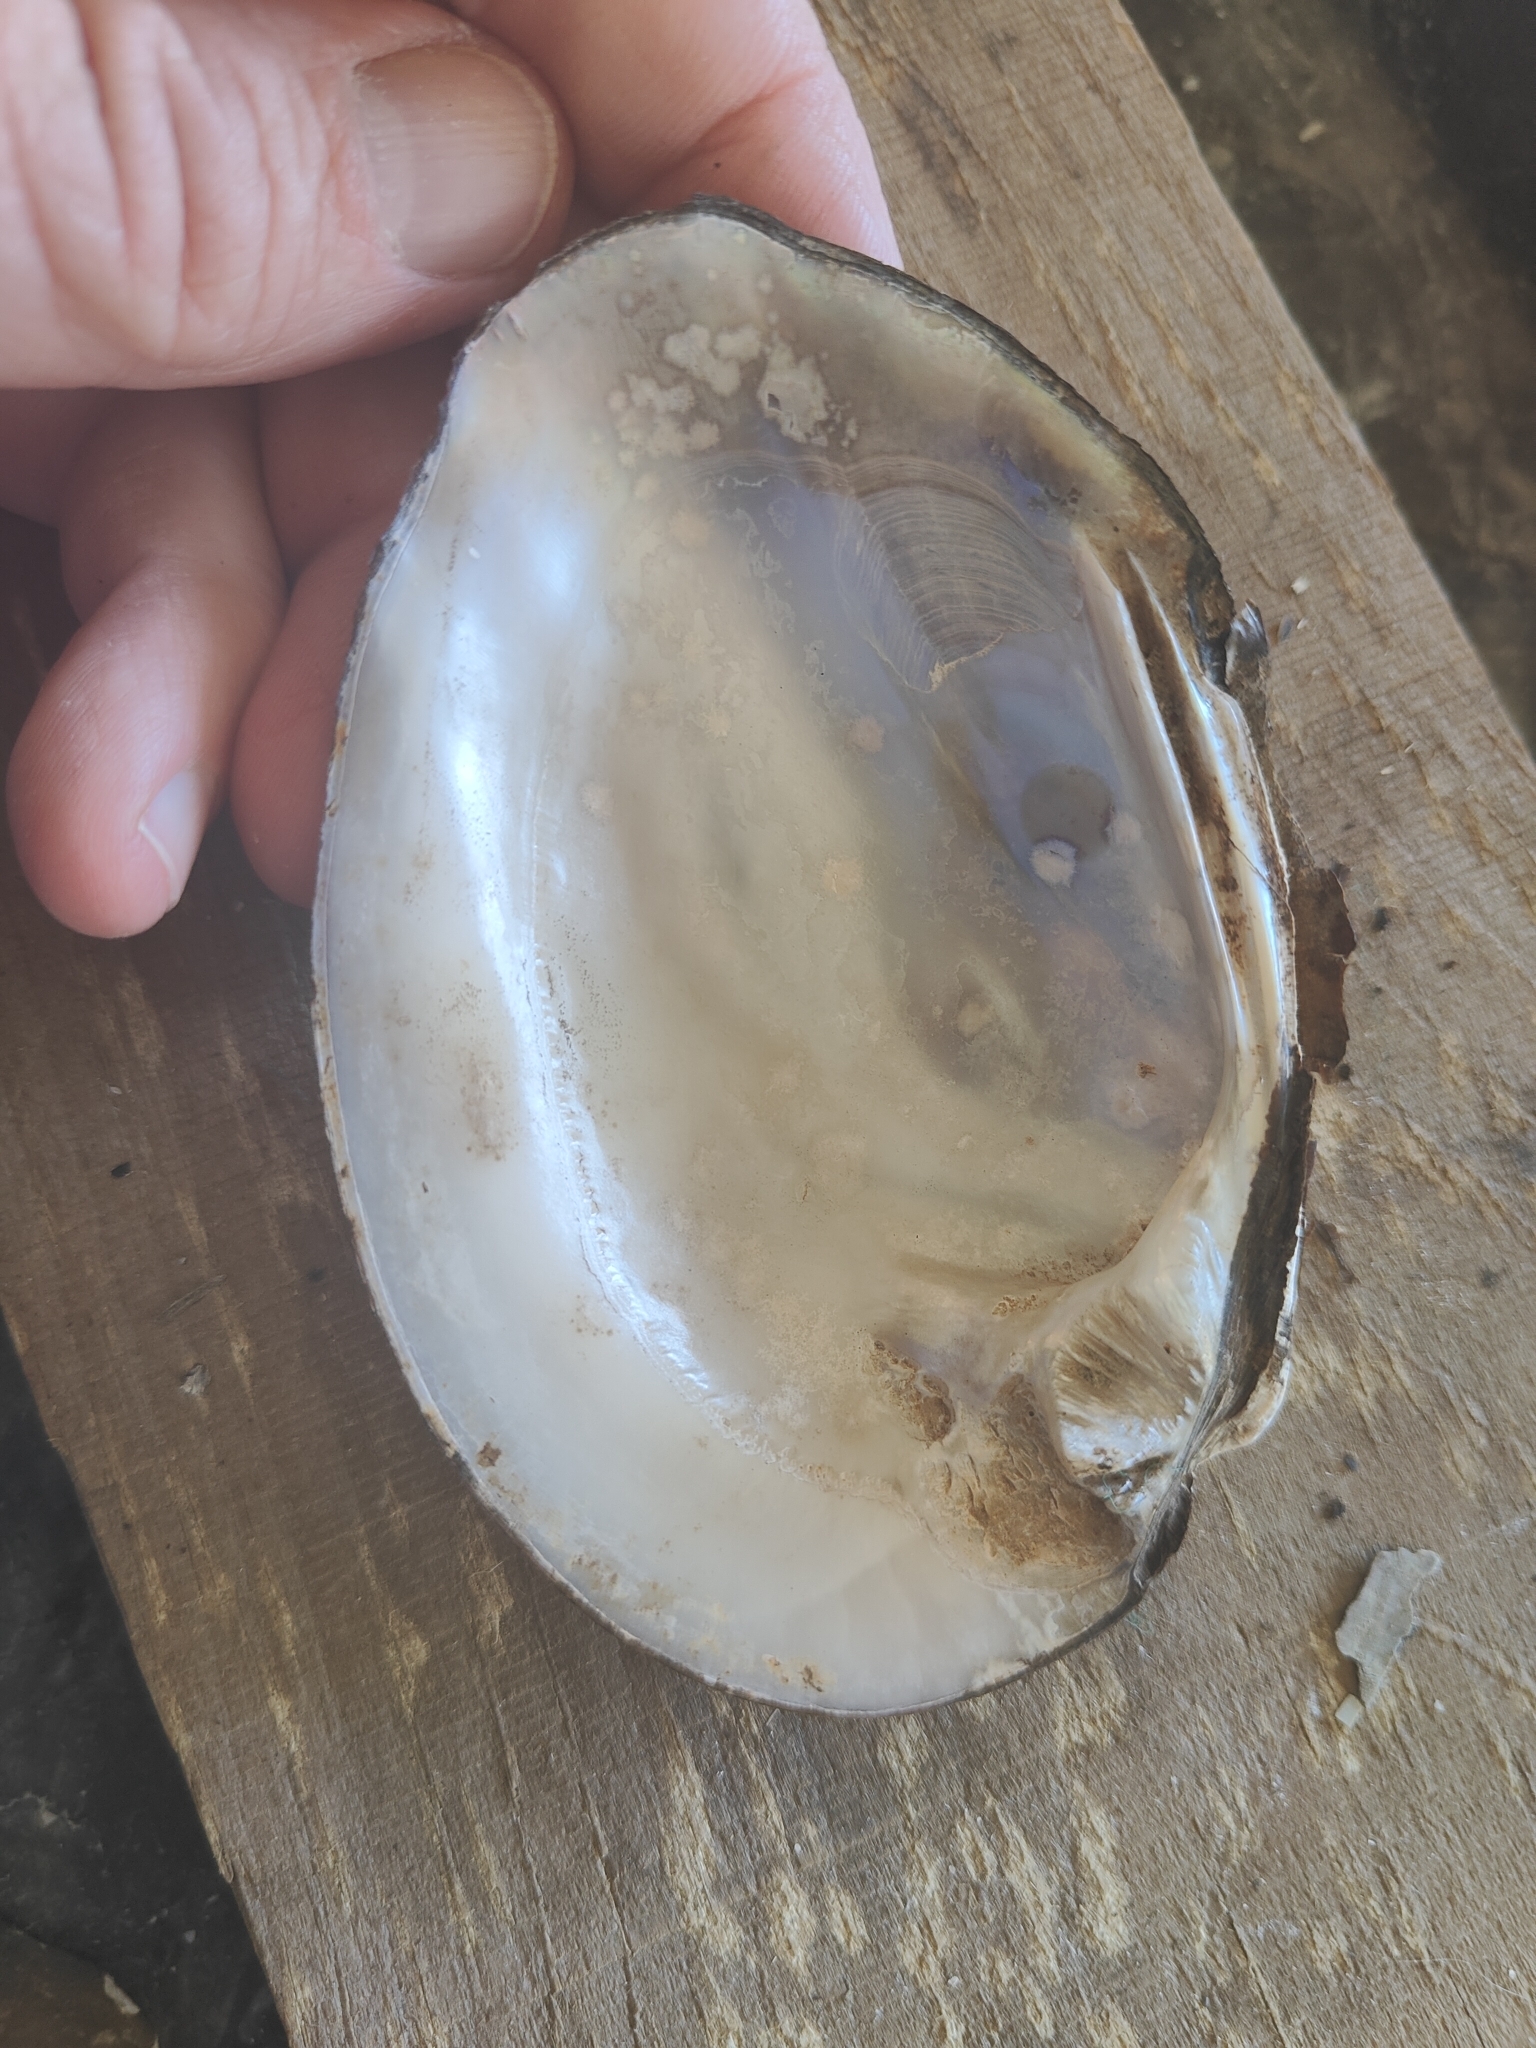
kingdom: Animalia
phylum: Mollusca
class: Bivalvia
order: Unionida
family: Unionidae
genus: Amblema
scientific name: Amblema plicata
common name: Threeridge
